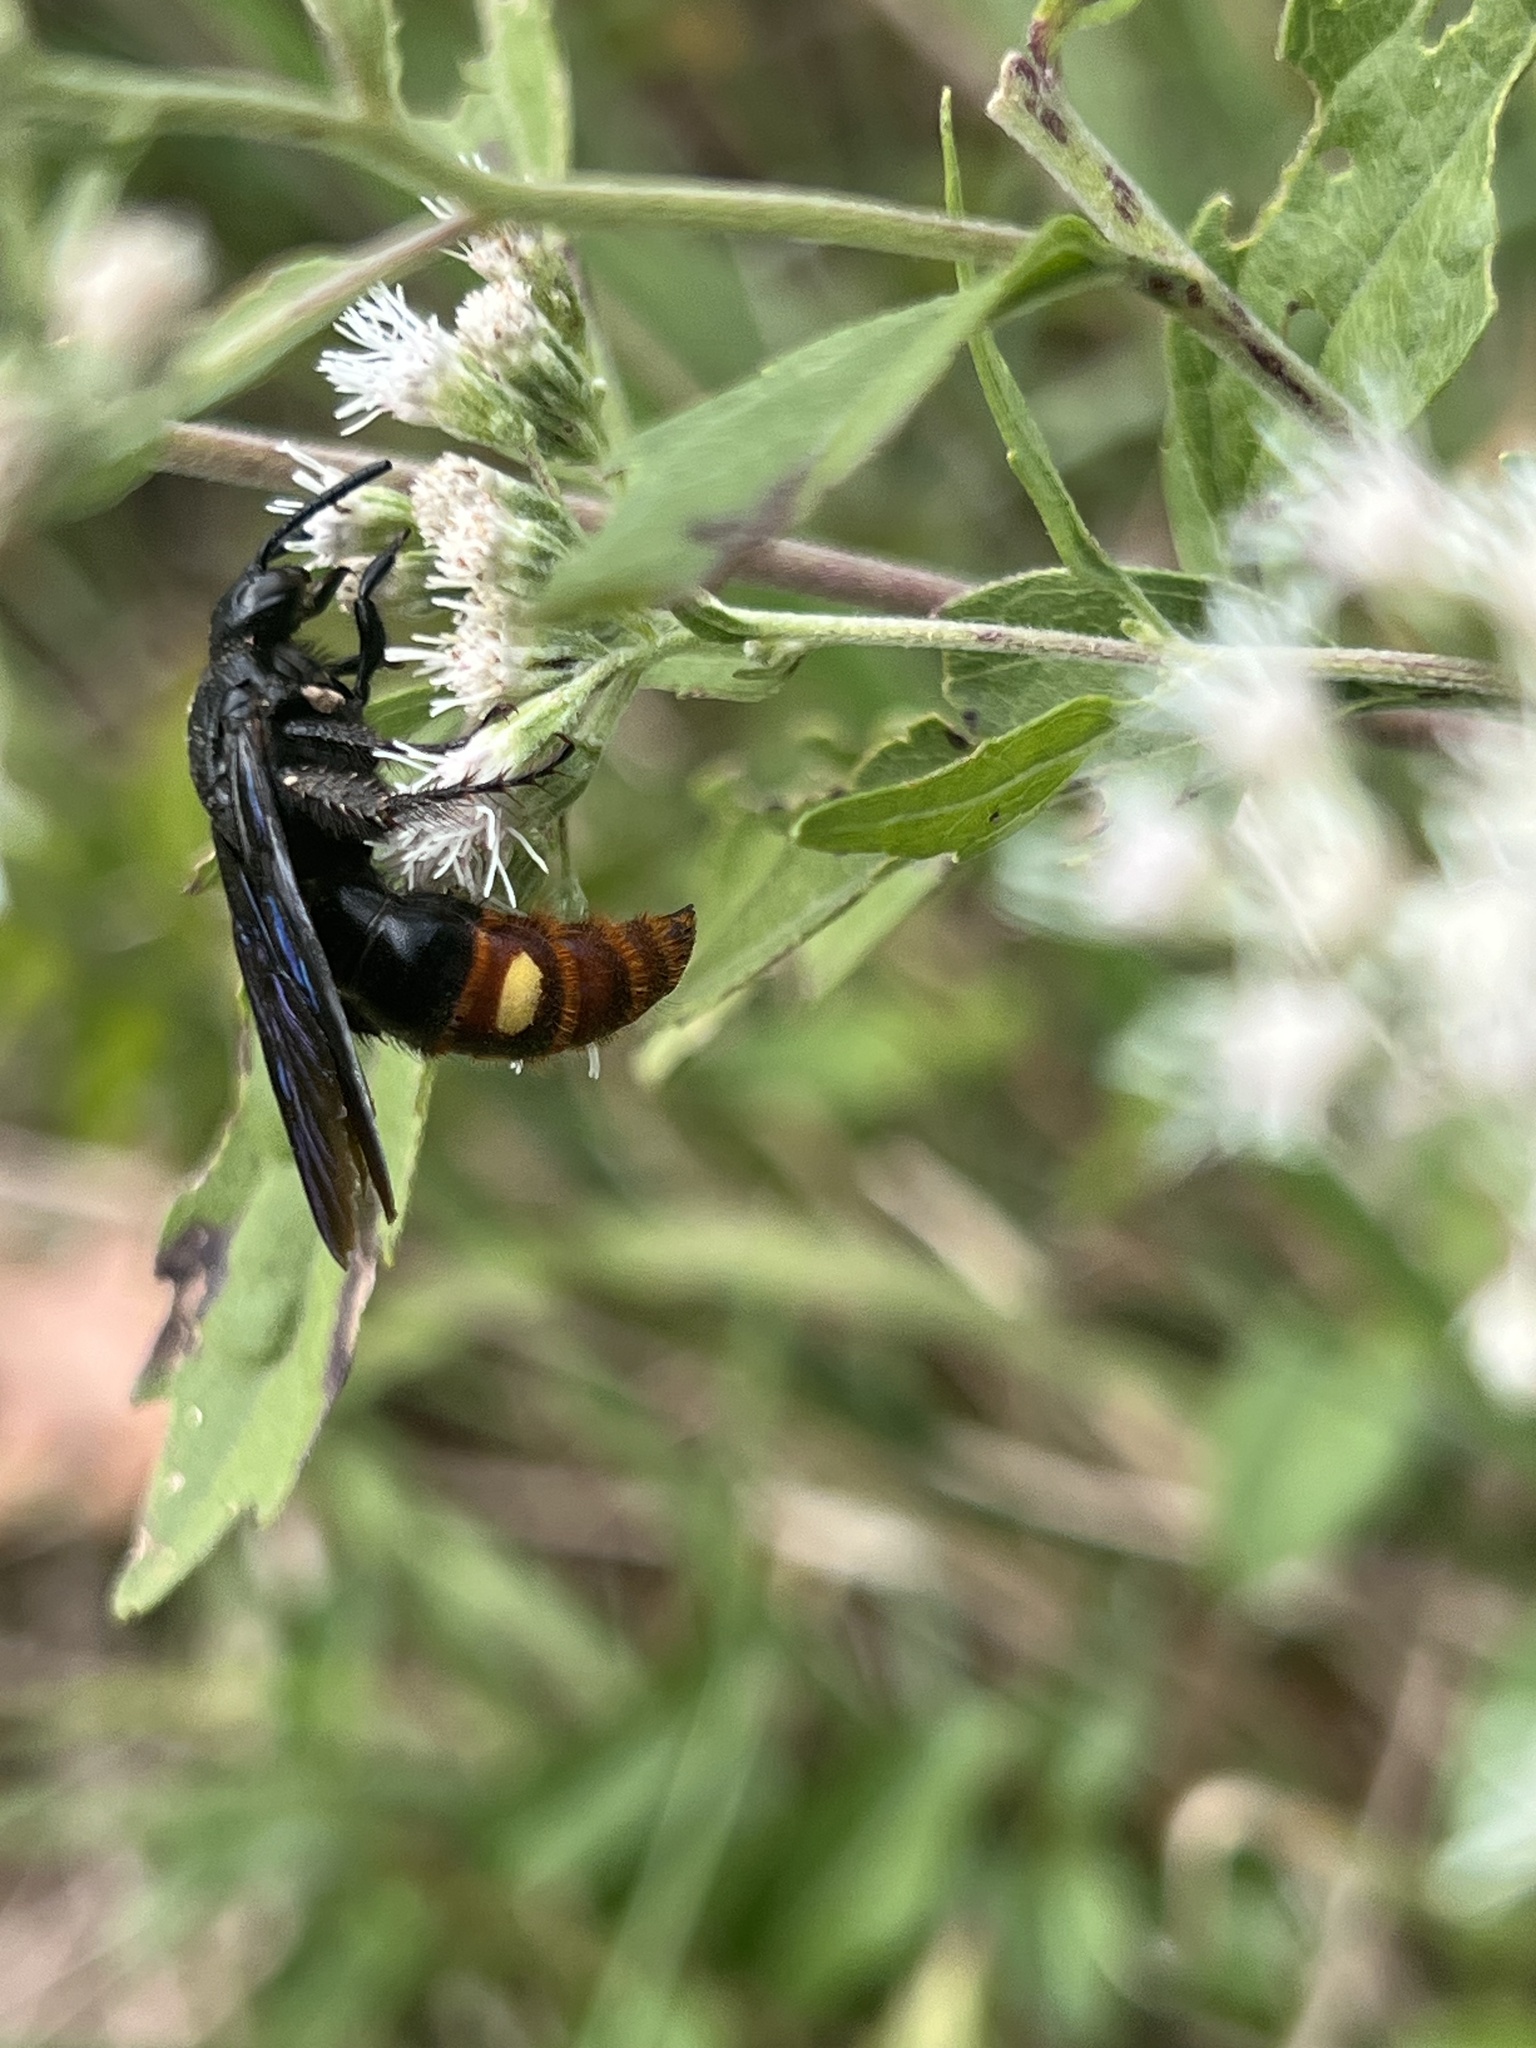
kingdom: Animalia
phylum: Arthropoda
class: Insecta
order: Hymenoptera
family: Scoliidae
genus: Scolia
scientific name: Scolia dubia
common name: Blue-winged scoliid wasp
